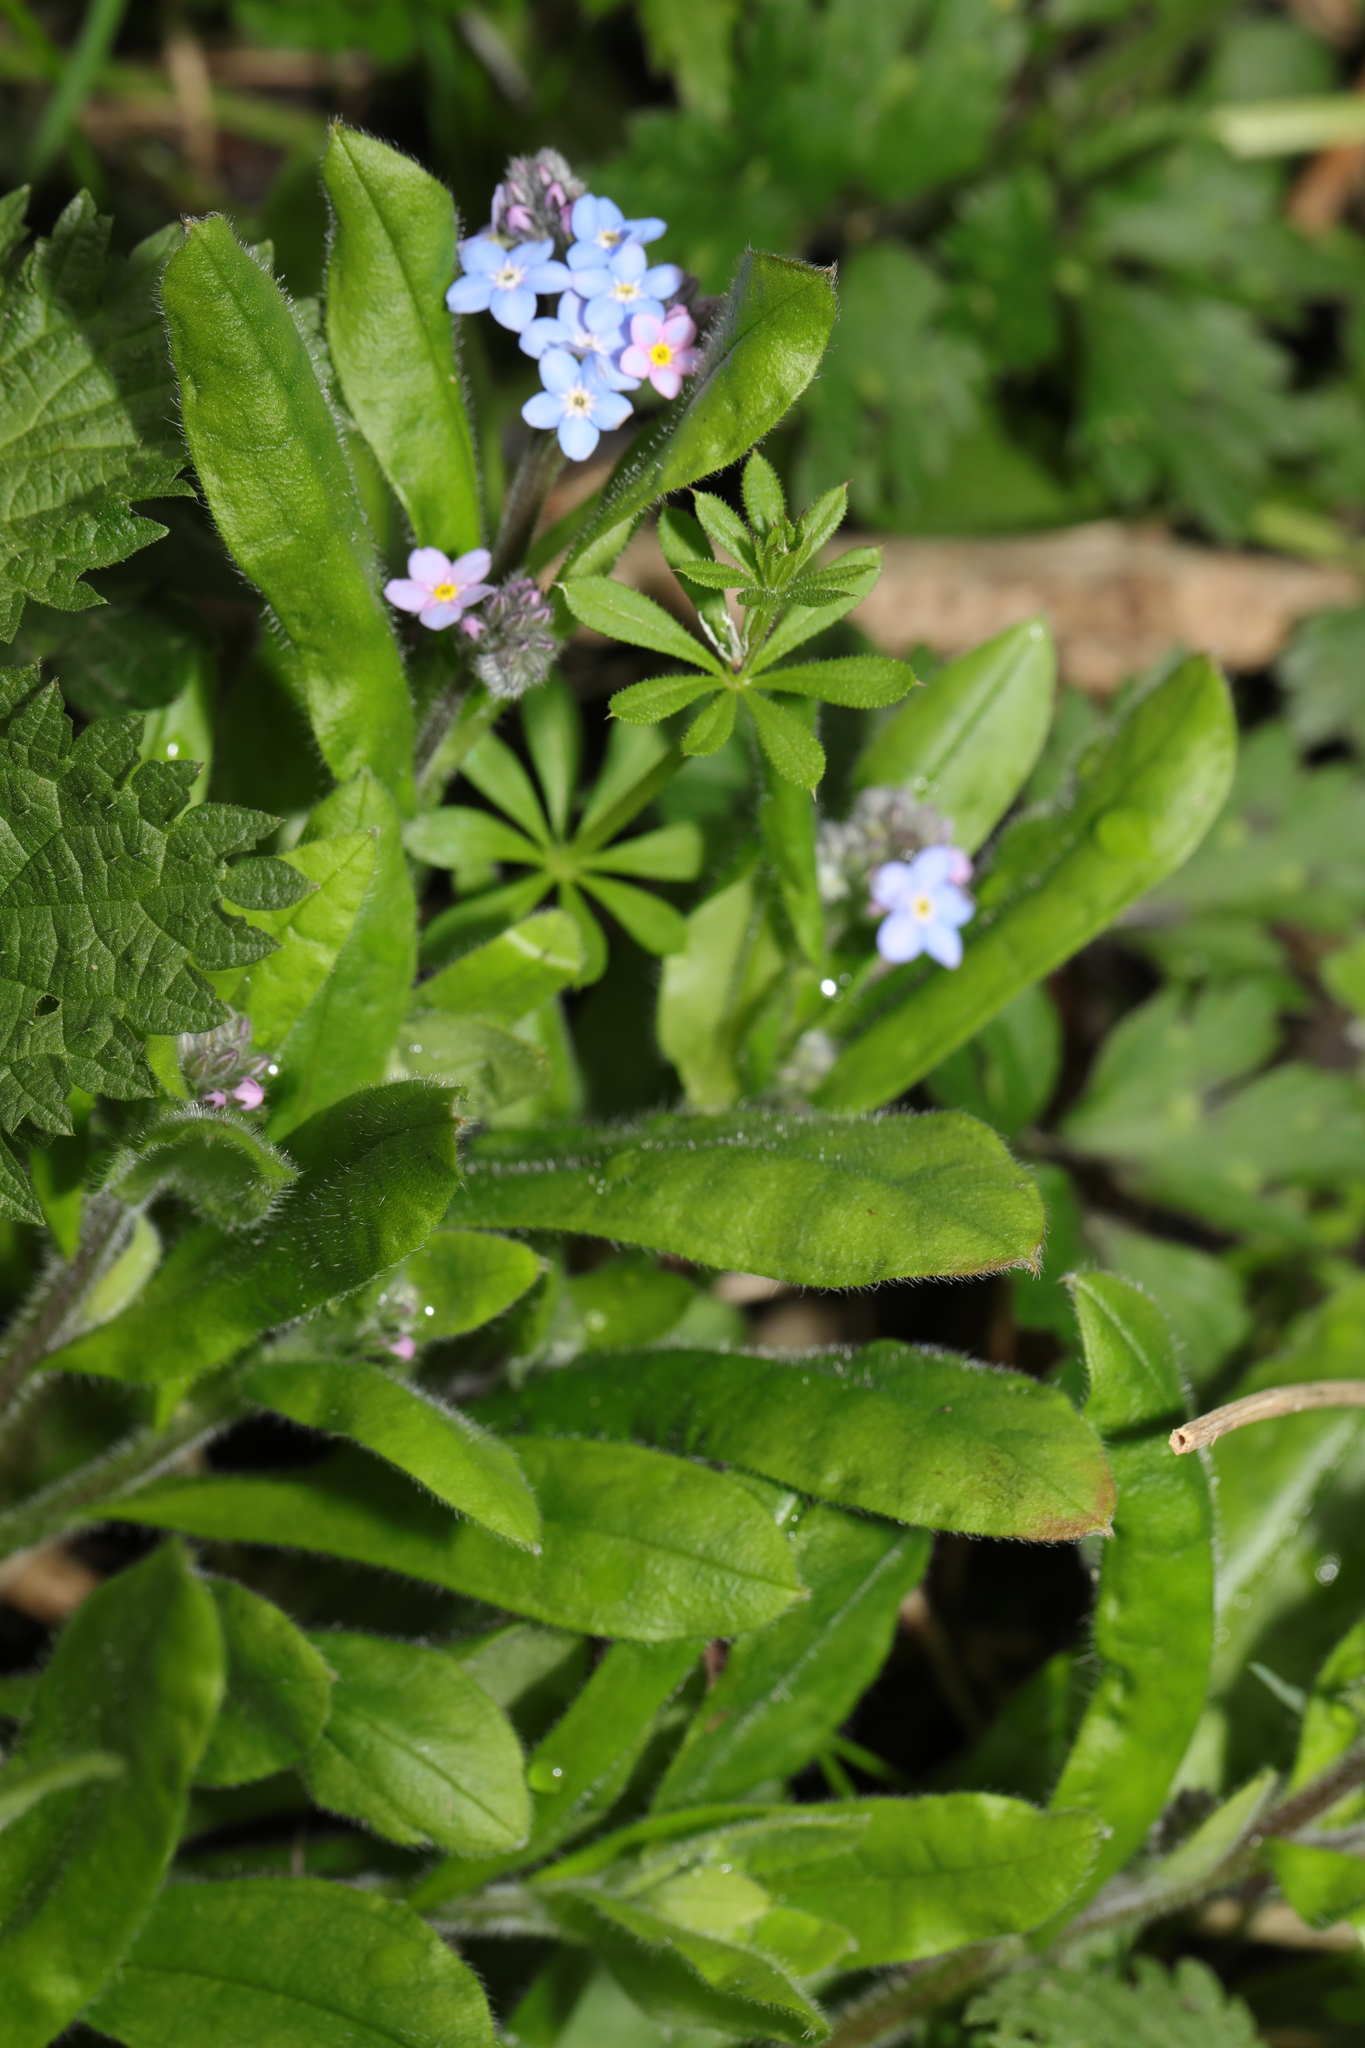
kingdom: Plantae
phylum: Tracheophyta
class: Magnoliopsida
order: Boraginales
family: Boraginaceae
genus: Myosotis
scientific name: Myosotis sylvatica
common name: Wood forget-me-not
